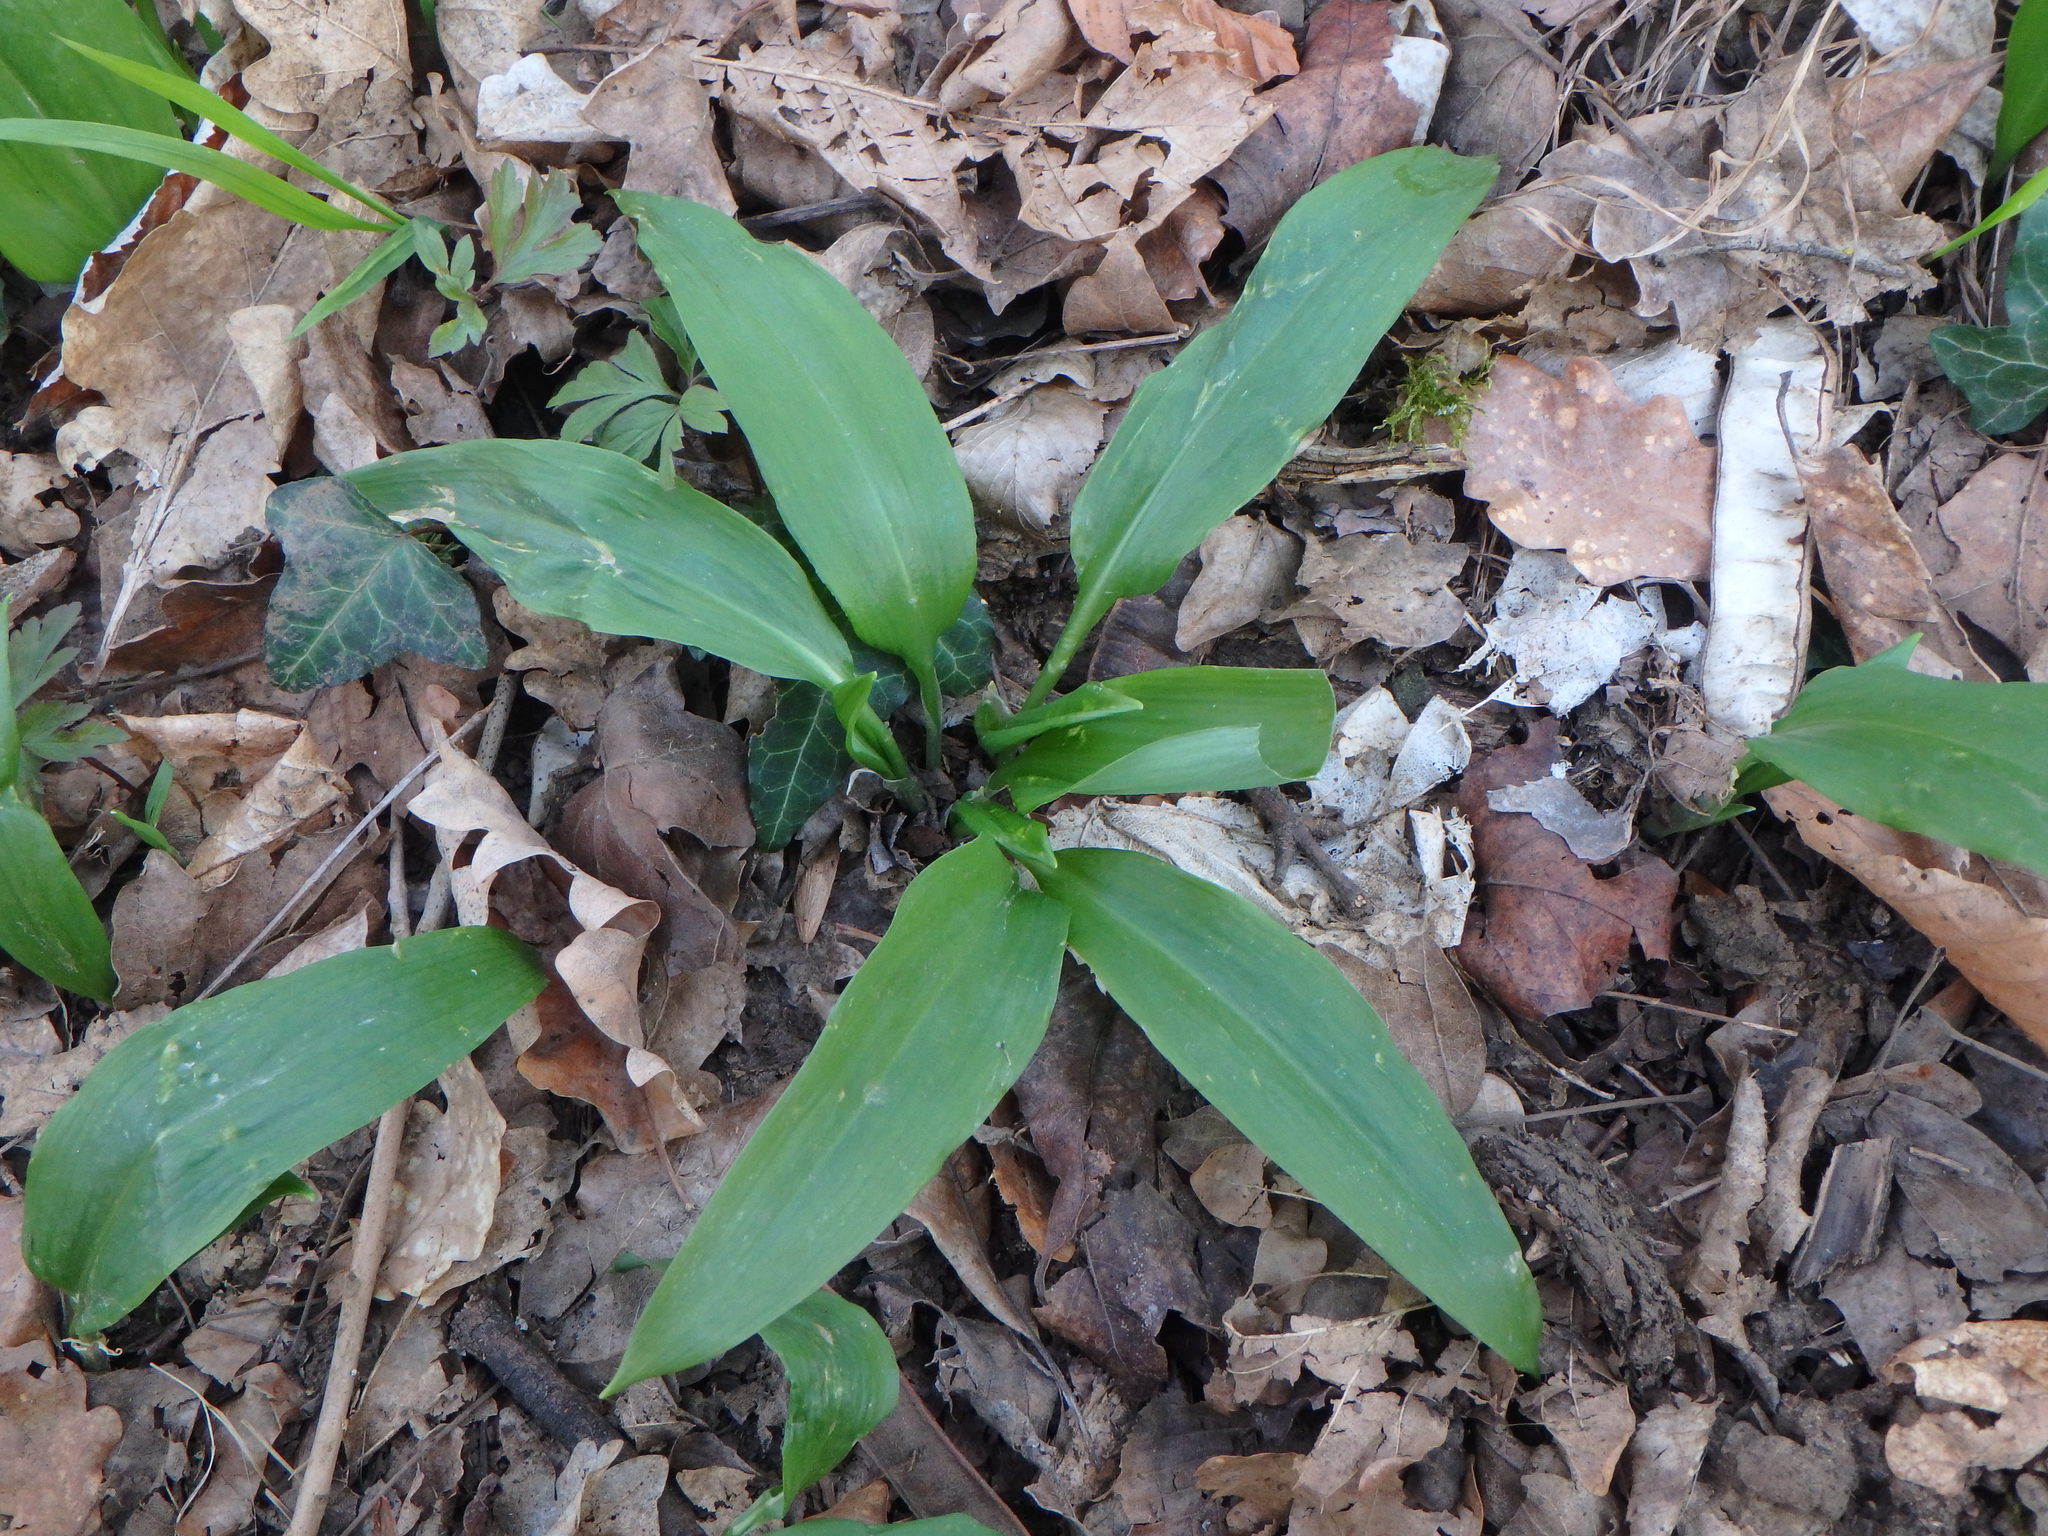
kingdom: Plantae
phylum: Tracheophyta
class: Liliopsida
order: Asparagales
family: Amaryllidaceae
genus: Allium
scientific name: Allium ursinum
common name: Ramsons
